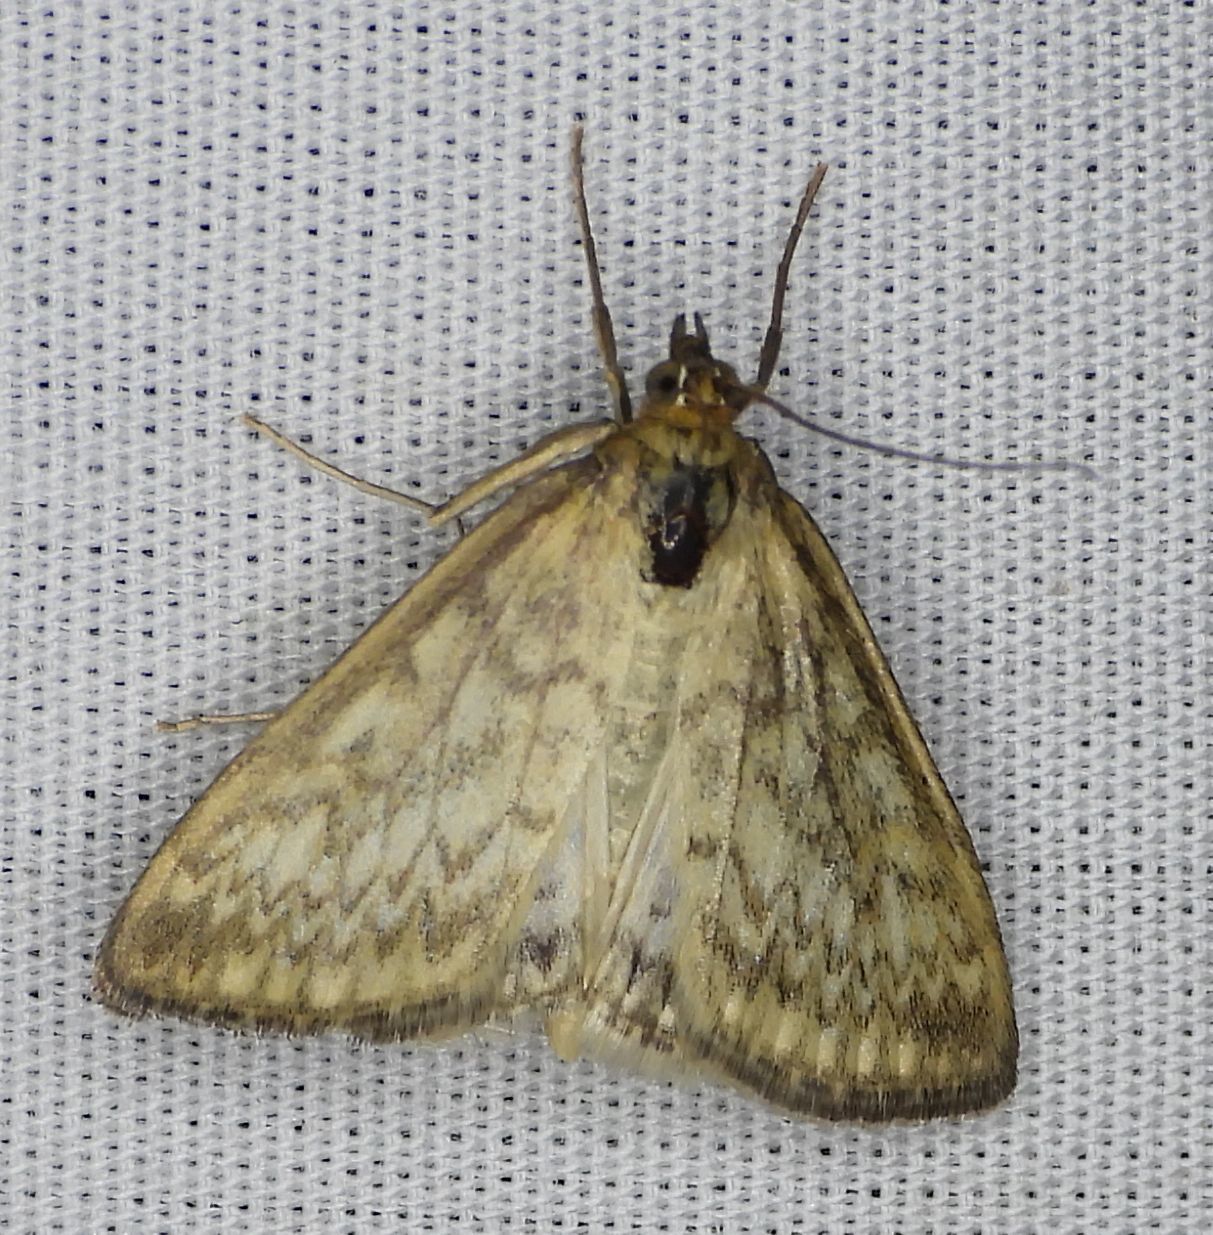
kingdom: Animalia
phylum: Arthropoda
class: Insecta
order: Lepidoptera
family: Crambidae
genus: Sitochroa
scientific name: Sitochroa chortalis
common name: Dimorphic sitochroa moth
